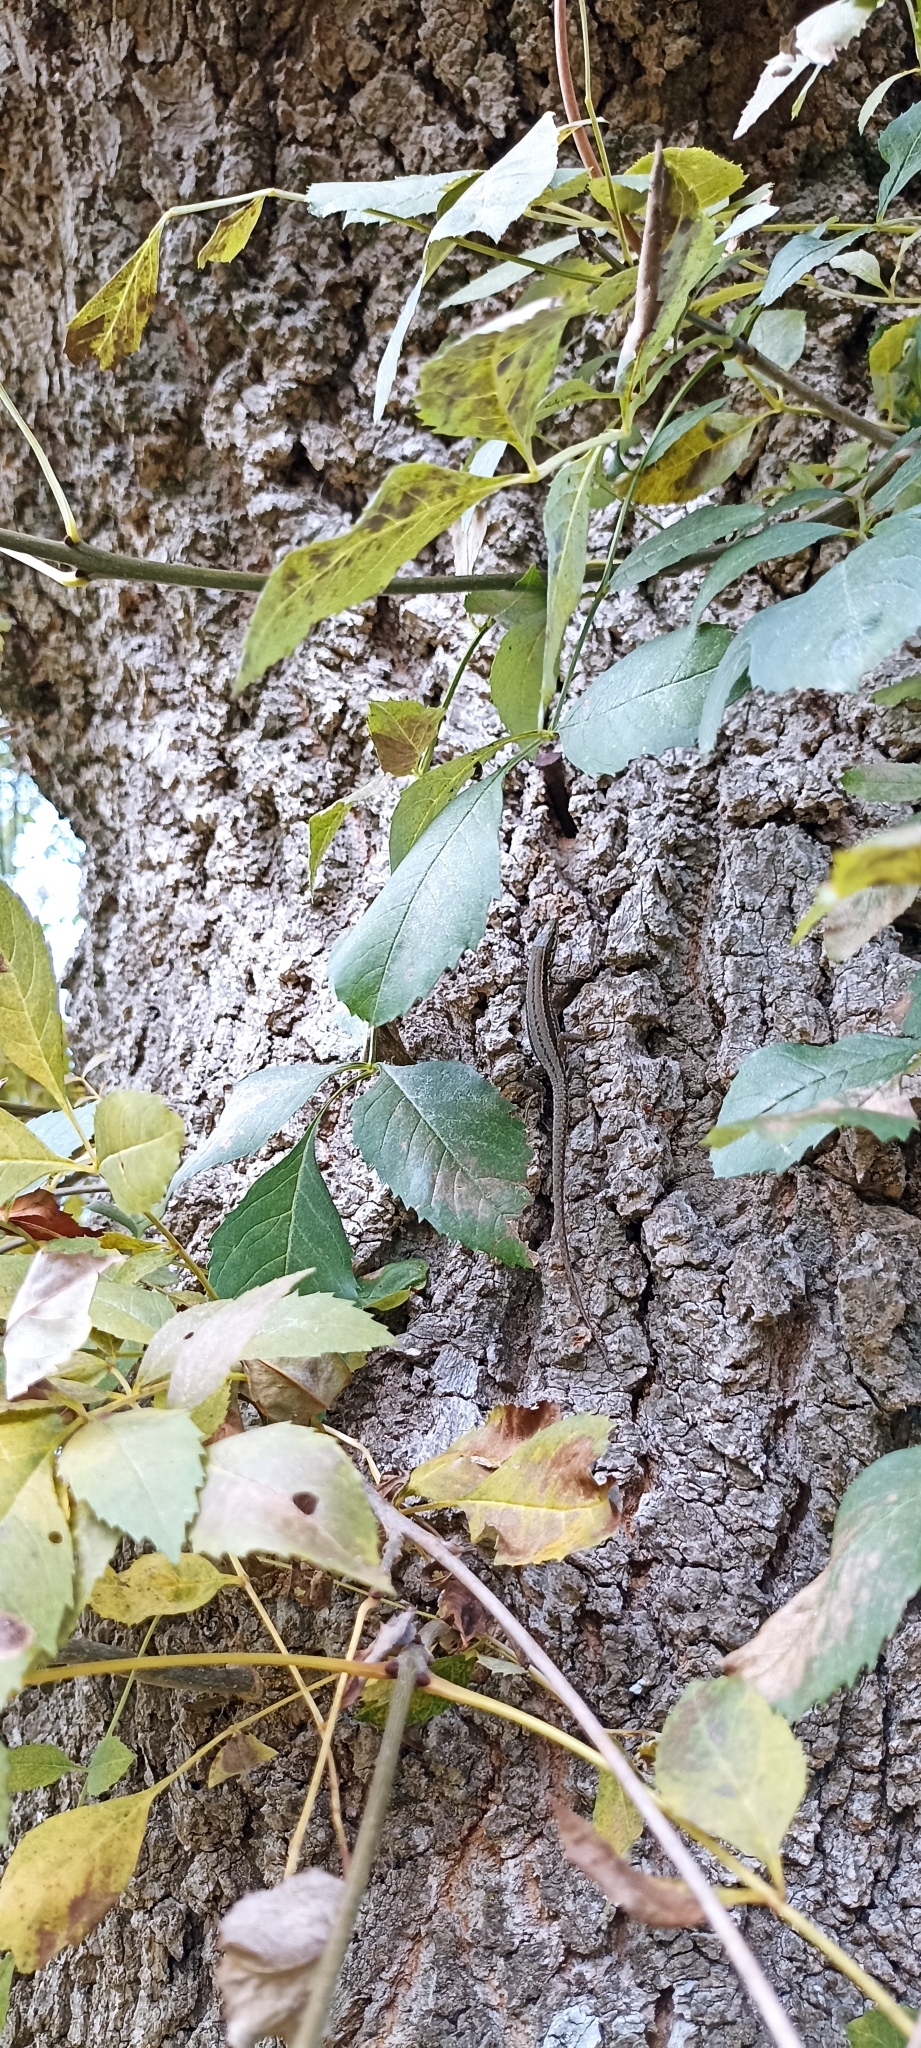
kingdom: Animalia
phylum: Chordata
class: Squamata
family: Lacertidae
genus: Podarcis
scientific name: Podarcis muralis
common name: Common wall lizard
